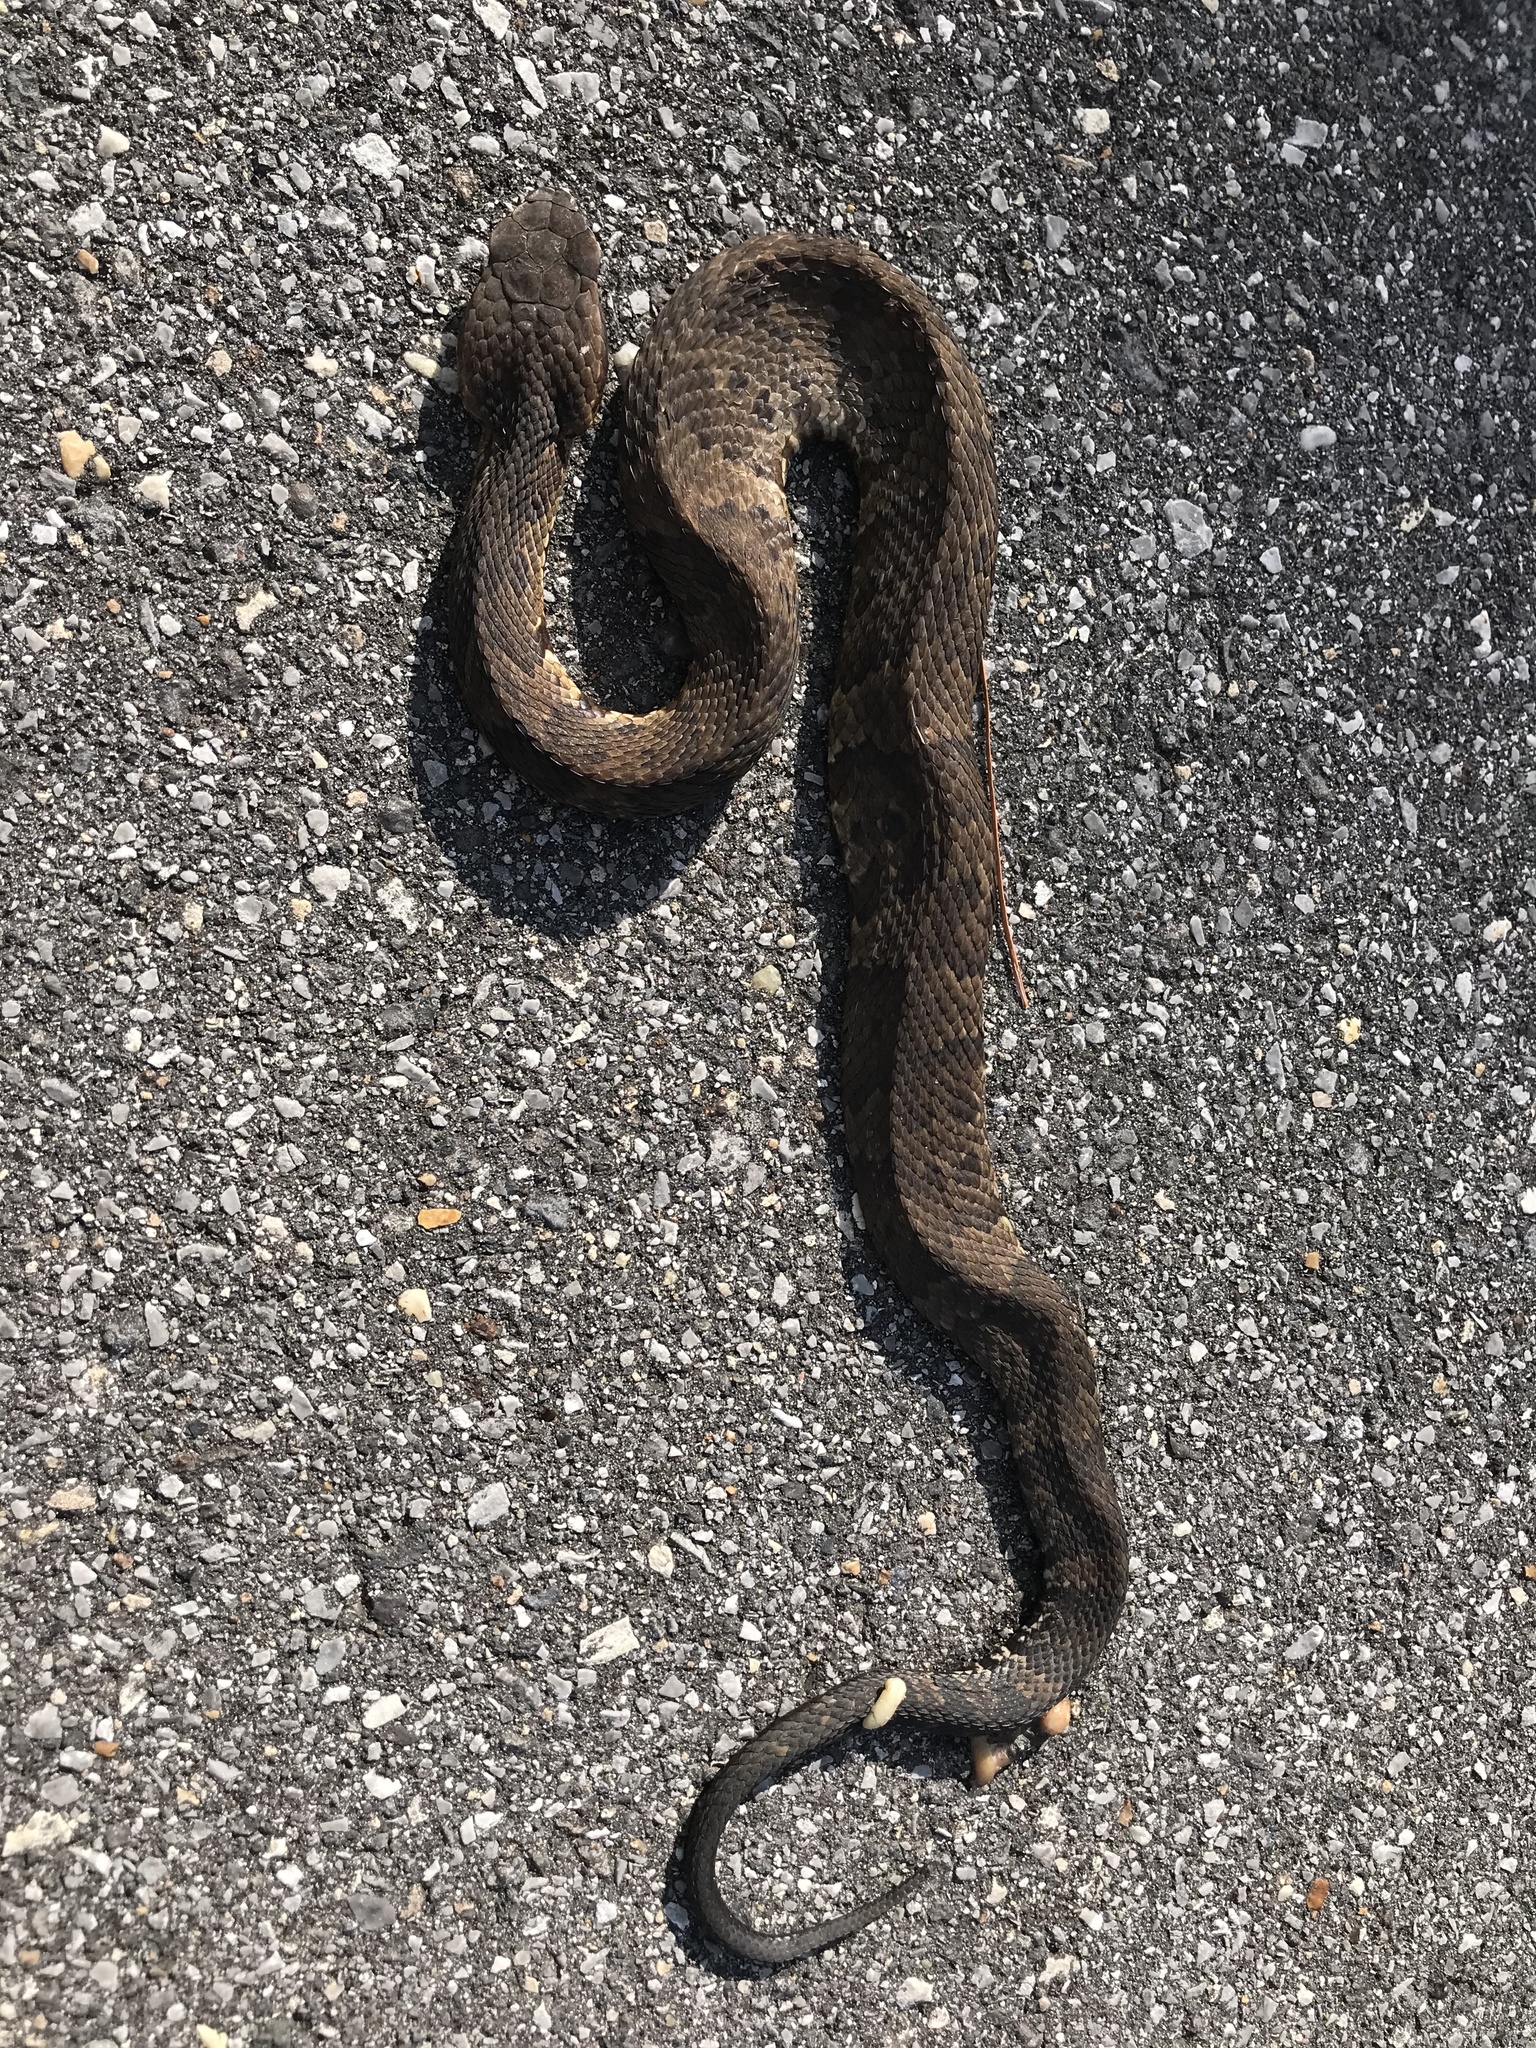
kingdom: Animalia
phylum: Chordata
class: Squamata
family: Viperidae
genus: Agkistrodon
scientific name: Agkistrodon piscivorus
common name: Cottonmouth
